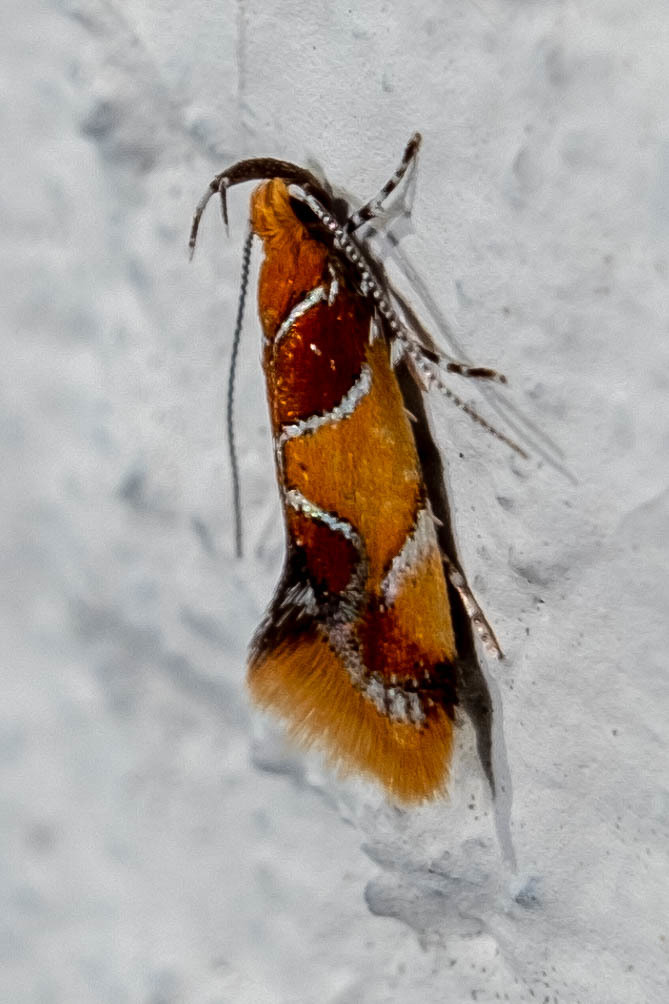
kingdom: Animalia
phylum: Arthropoda
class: Insecta
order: Lepidoptera
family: Oecophoridae
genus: Callima
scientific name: Callima argenticinctella
